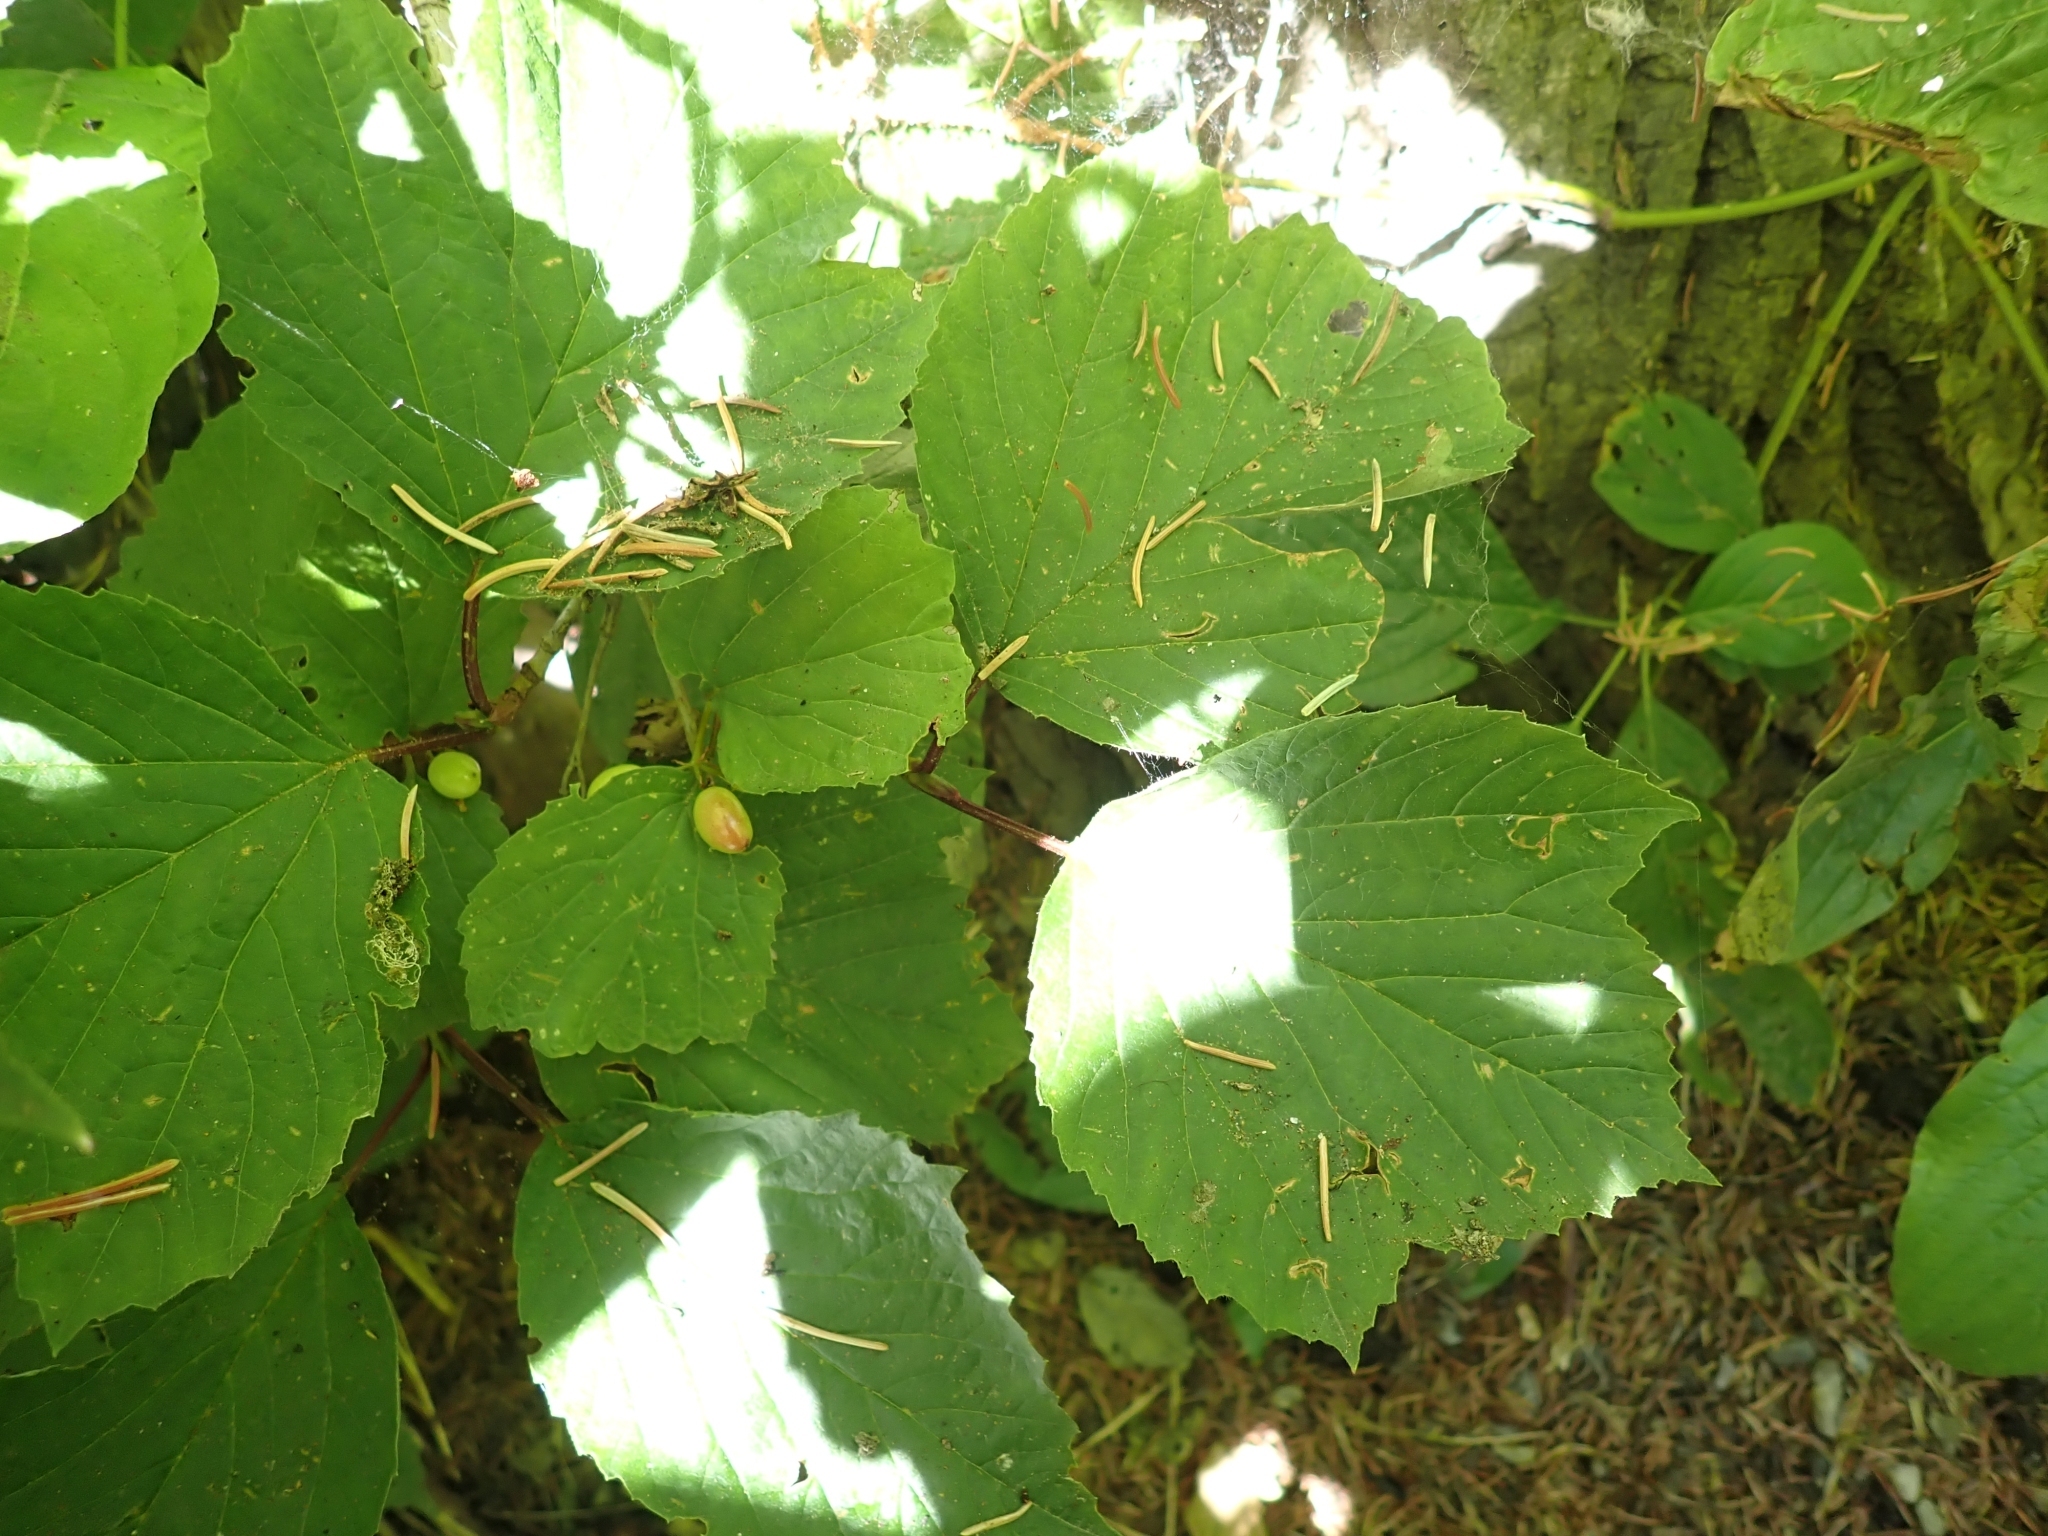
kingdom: Plantae
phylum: Tracheophyta
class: Magnoliopsida
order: Dipsacales
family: Viburnaceae
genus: Viburnum
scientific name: Viburnum edule
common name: Mooseberry
